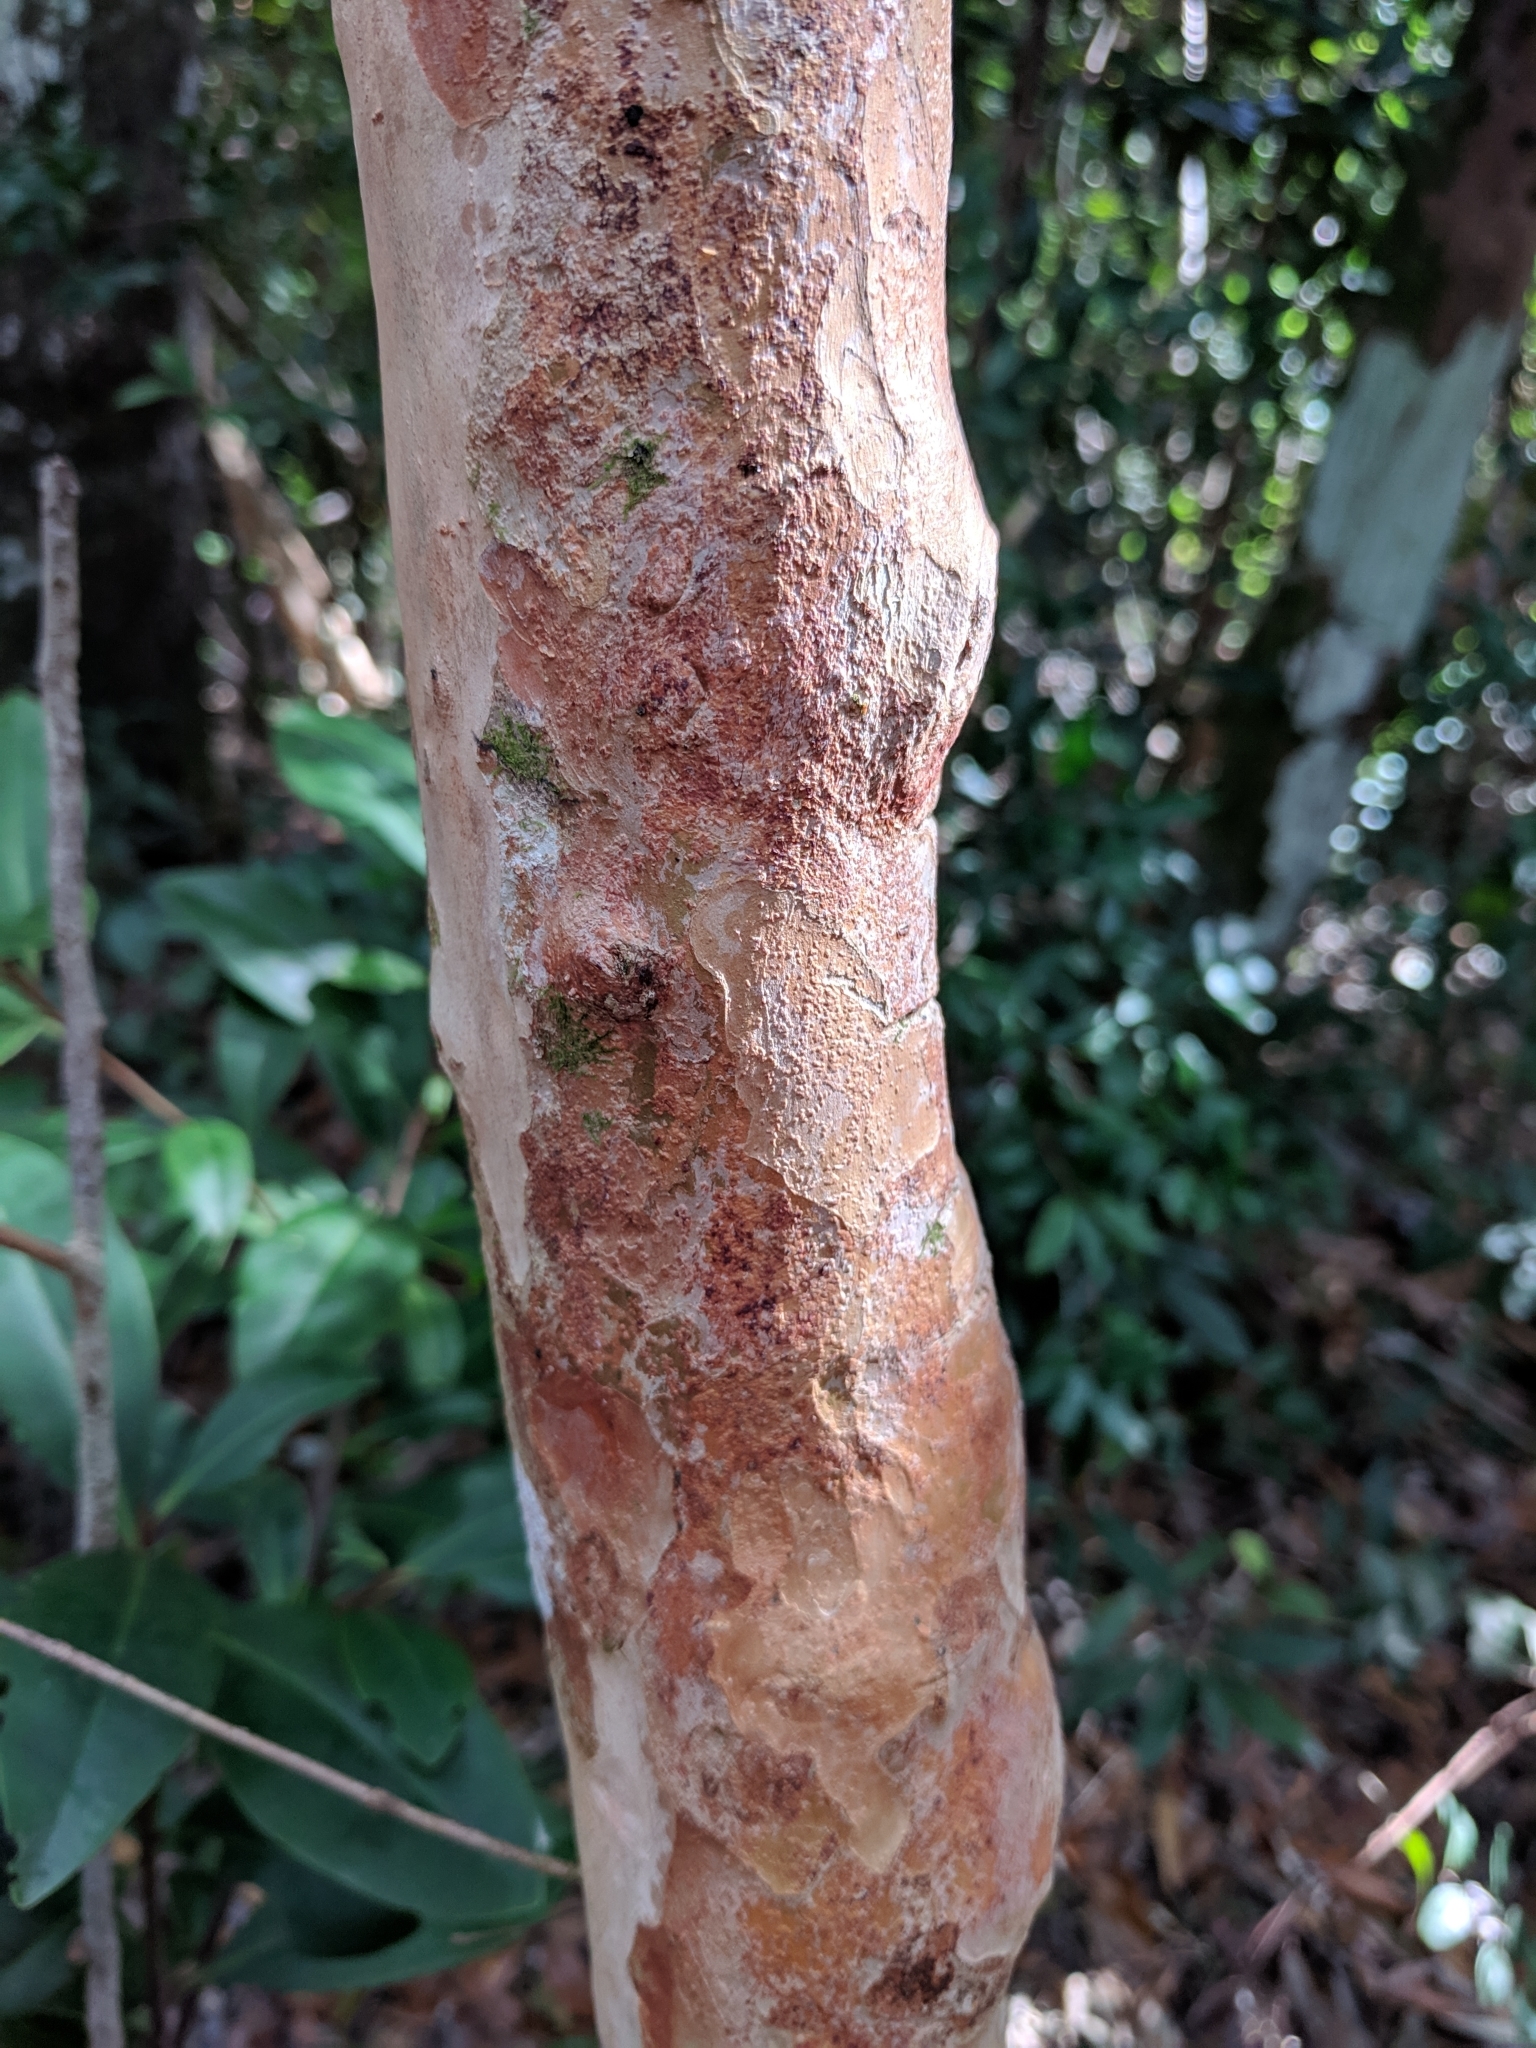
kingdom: Plantae
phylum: Tracheophyta
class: Magnoliopsida
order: Myrtales
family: Myrtaceae
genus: Myrcianthes
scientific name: Myrcianthes fragrans
